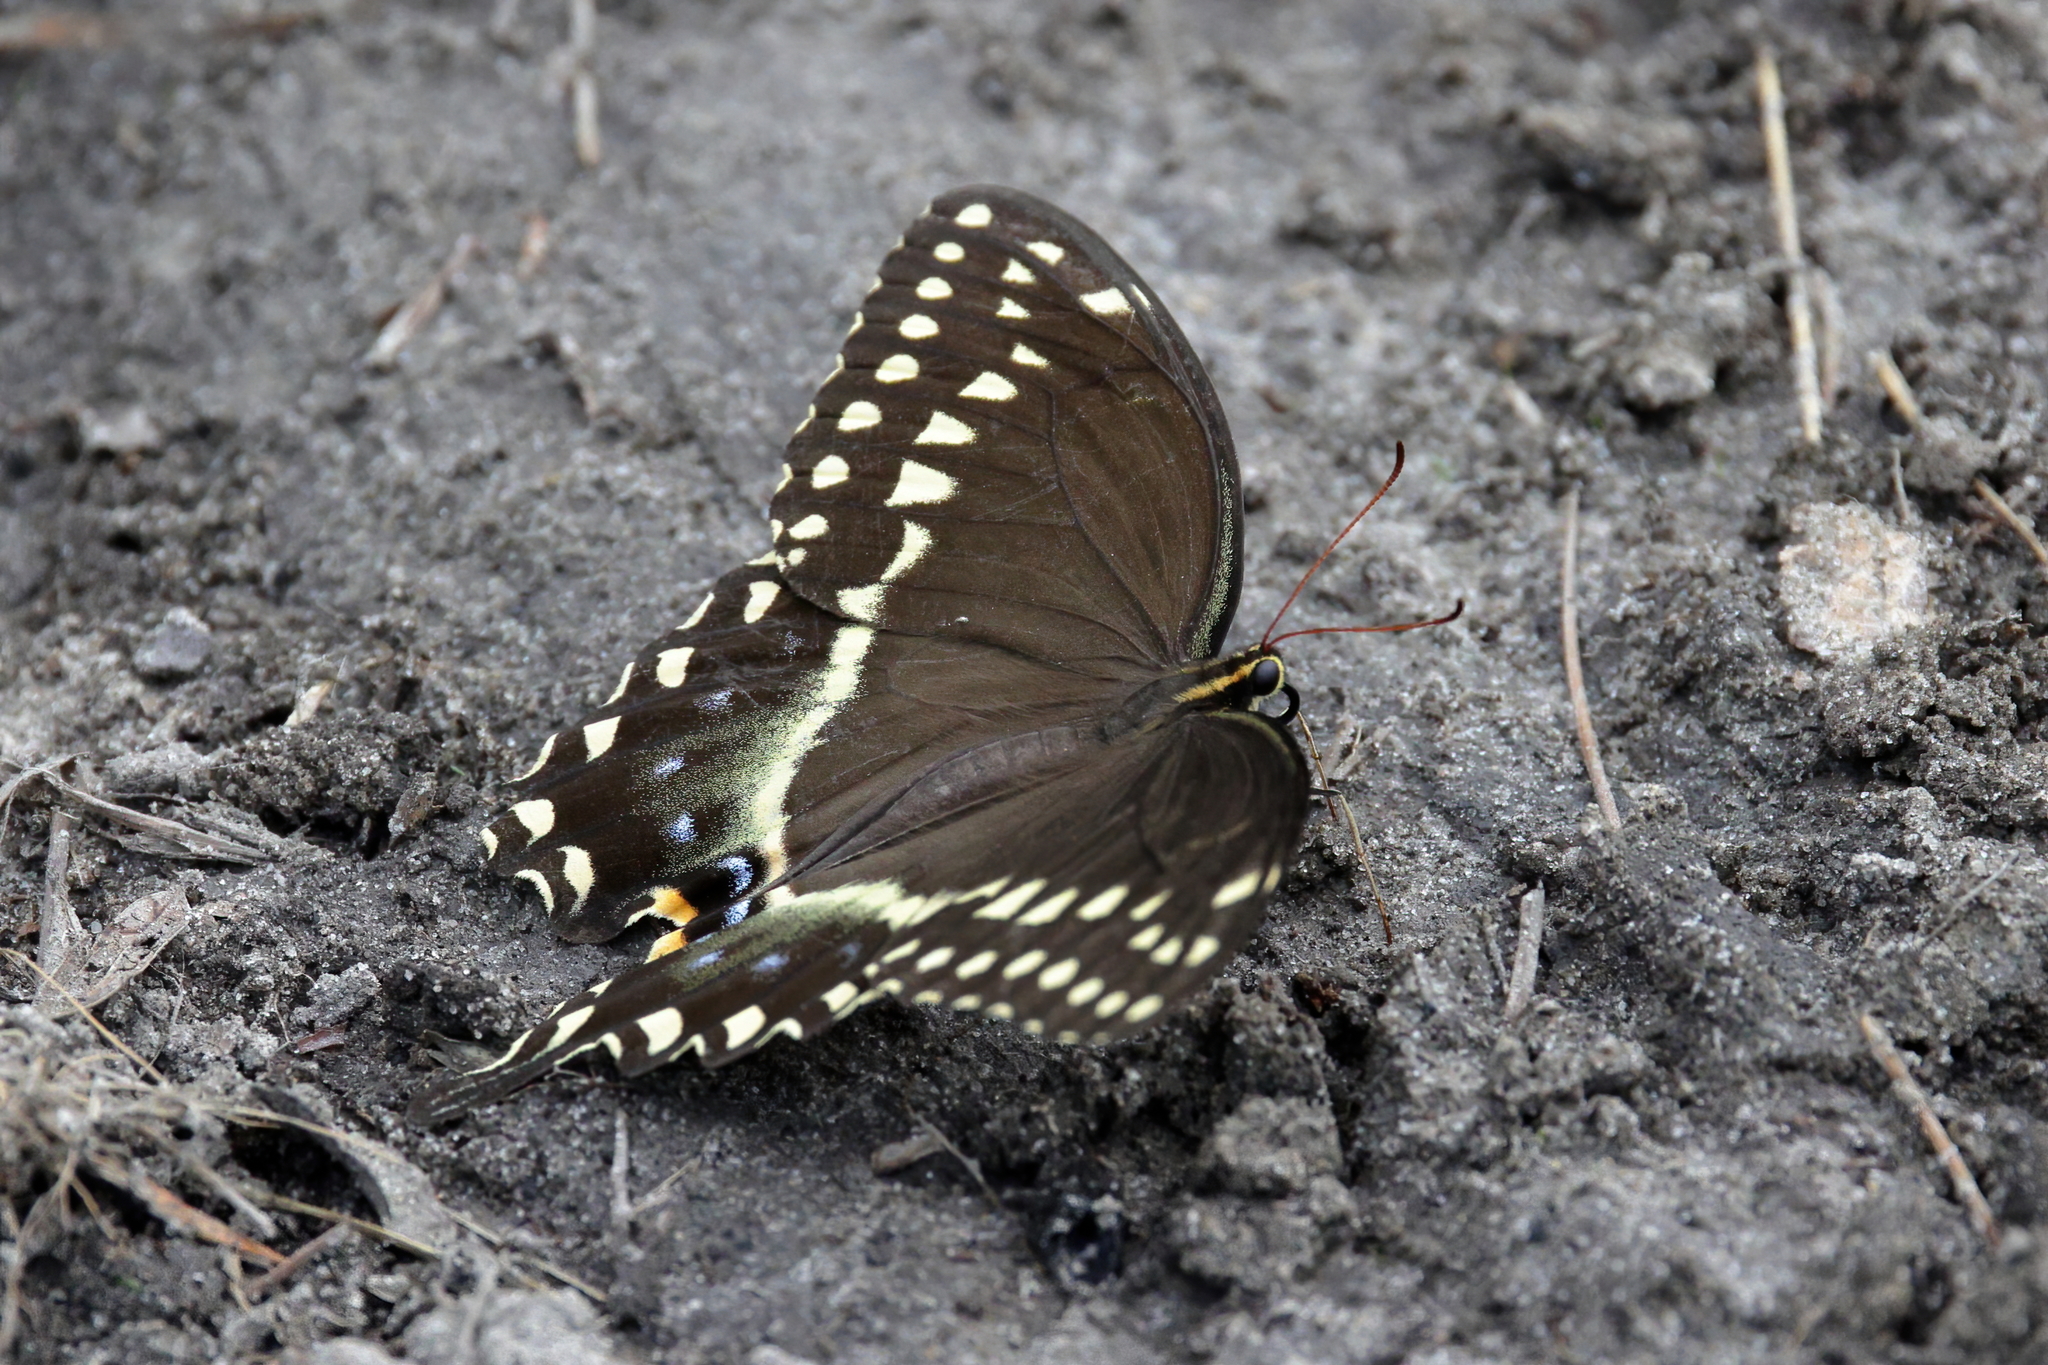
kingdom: Animalia
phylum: Arthropoda
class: Insecta
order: Lepidoptera
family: Papilionidae
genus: Papilio
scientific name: Papilio palamedes
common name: Palamedes swallowtail
